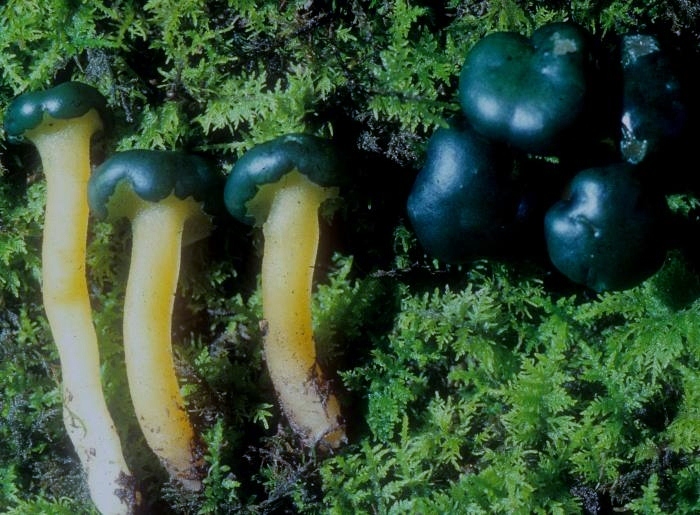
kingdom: Fungi
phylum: Ascomycota
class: Leotiomycetes
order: Leotiales
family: Leotiaceae
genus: Leotia
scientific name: Leotia lubrica
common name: Jellybaby
